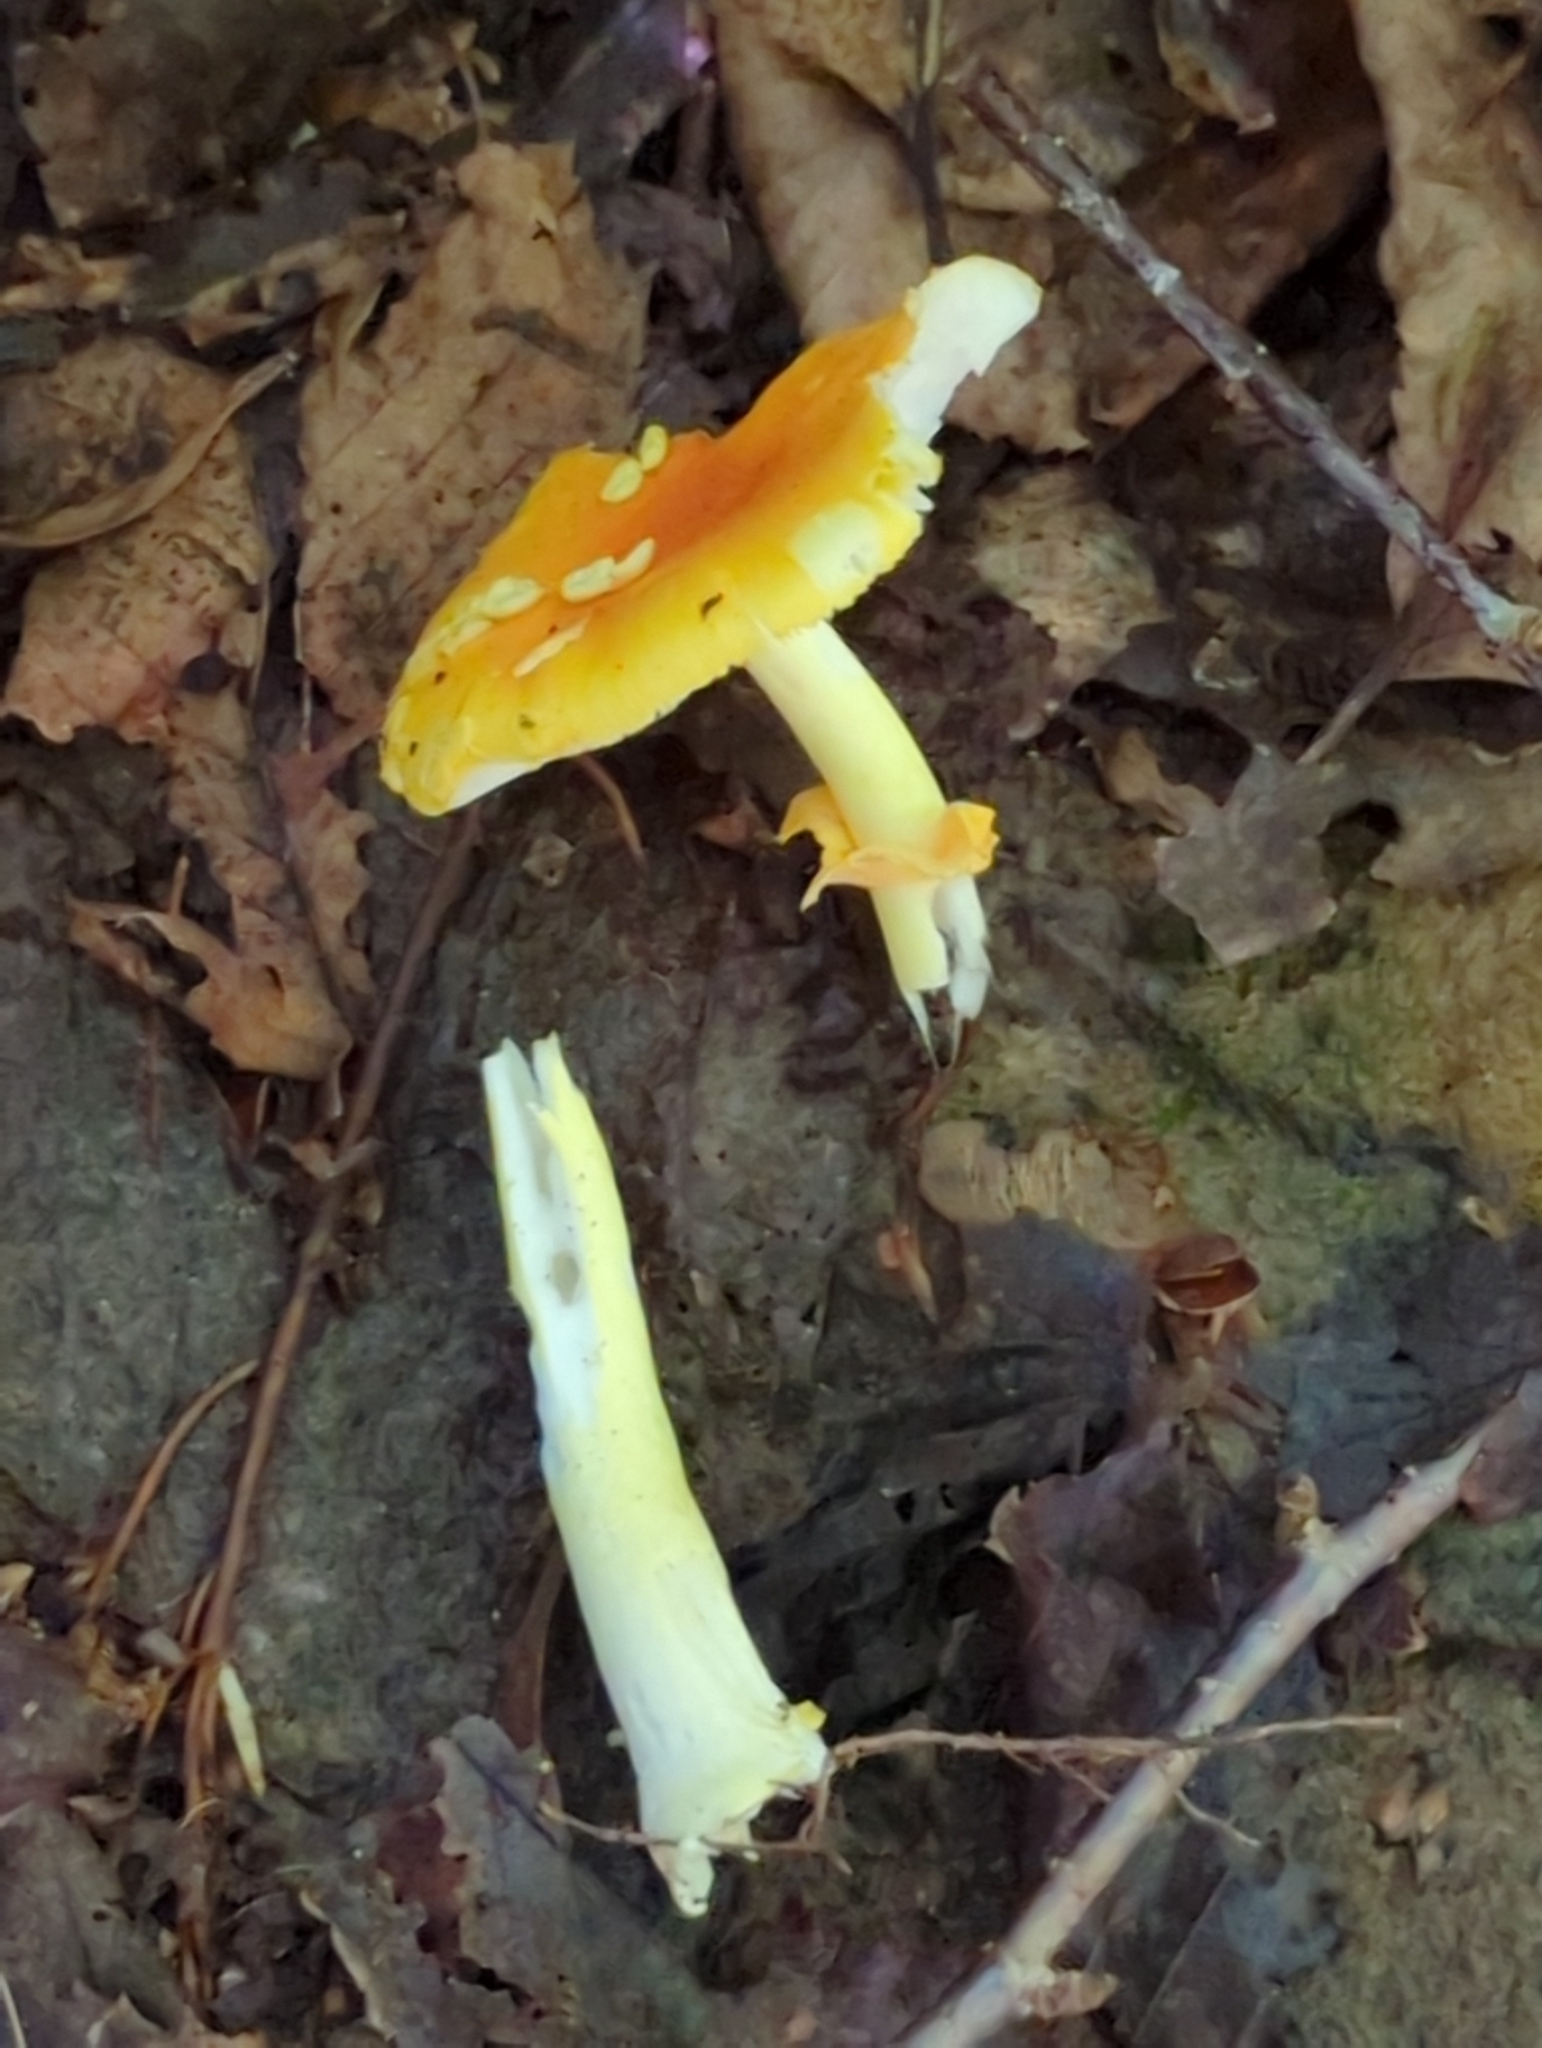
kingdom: Fungi
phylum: Basidiomycota
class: Agaricomycetes
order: Agaricales
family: Amanitaceae
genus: Amanita
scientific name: Amanita flavoconia
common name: Yellow patches
